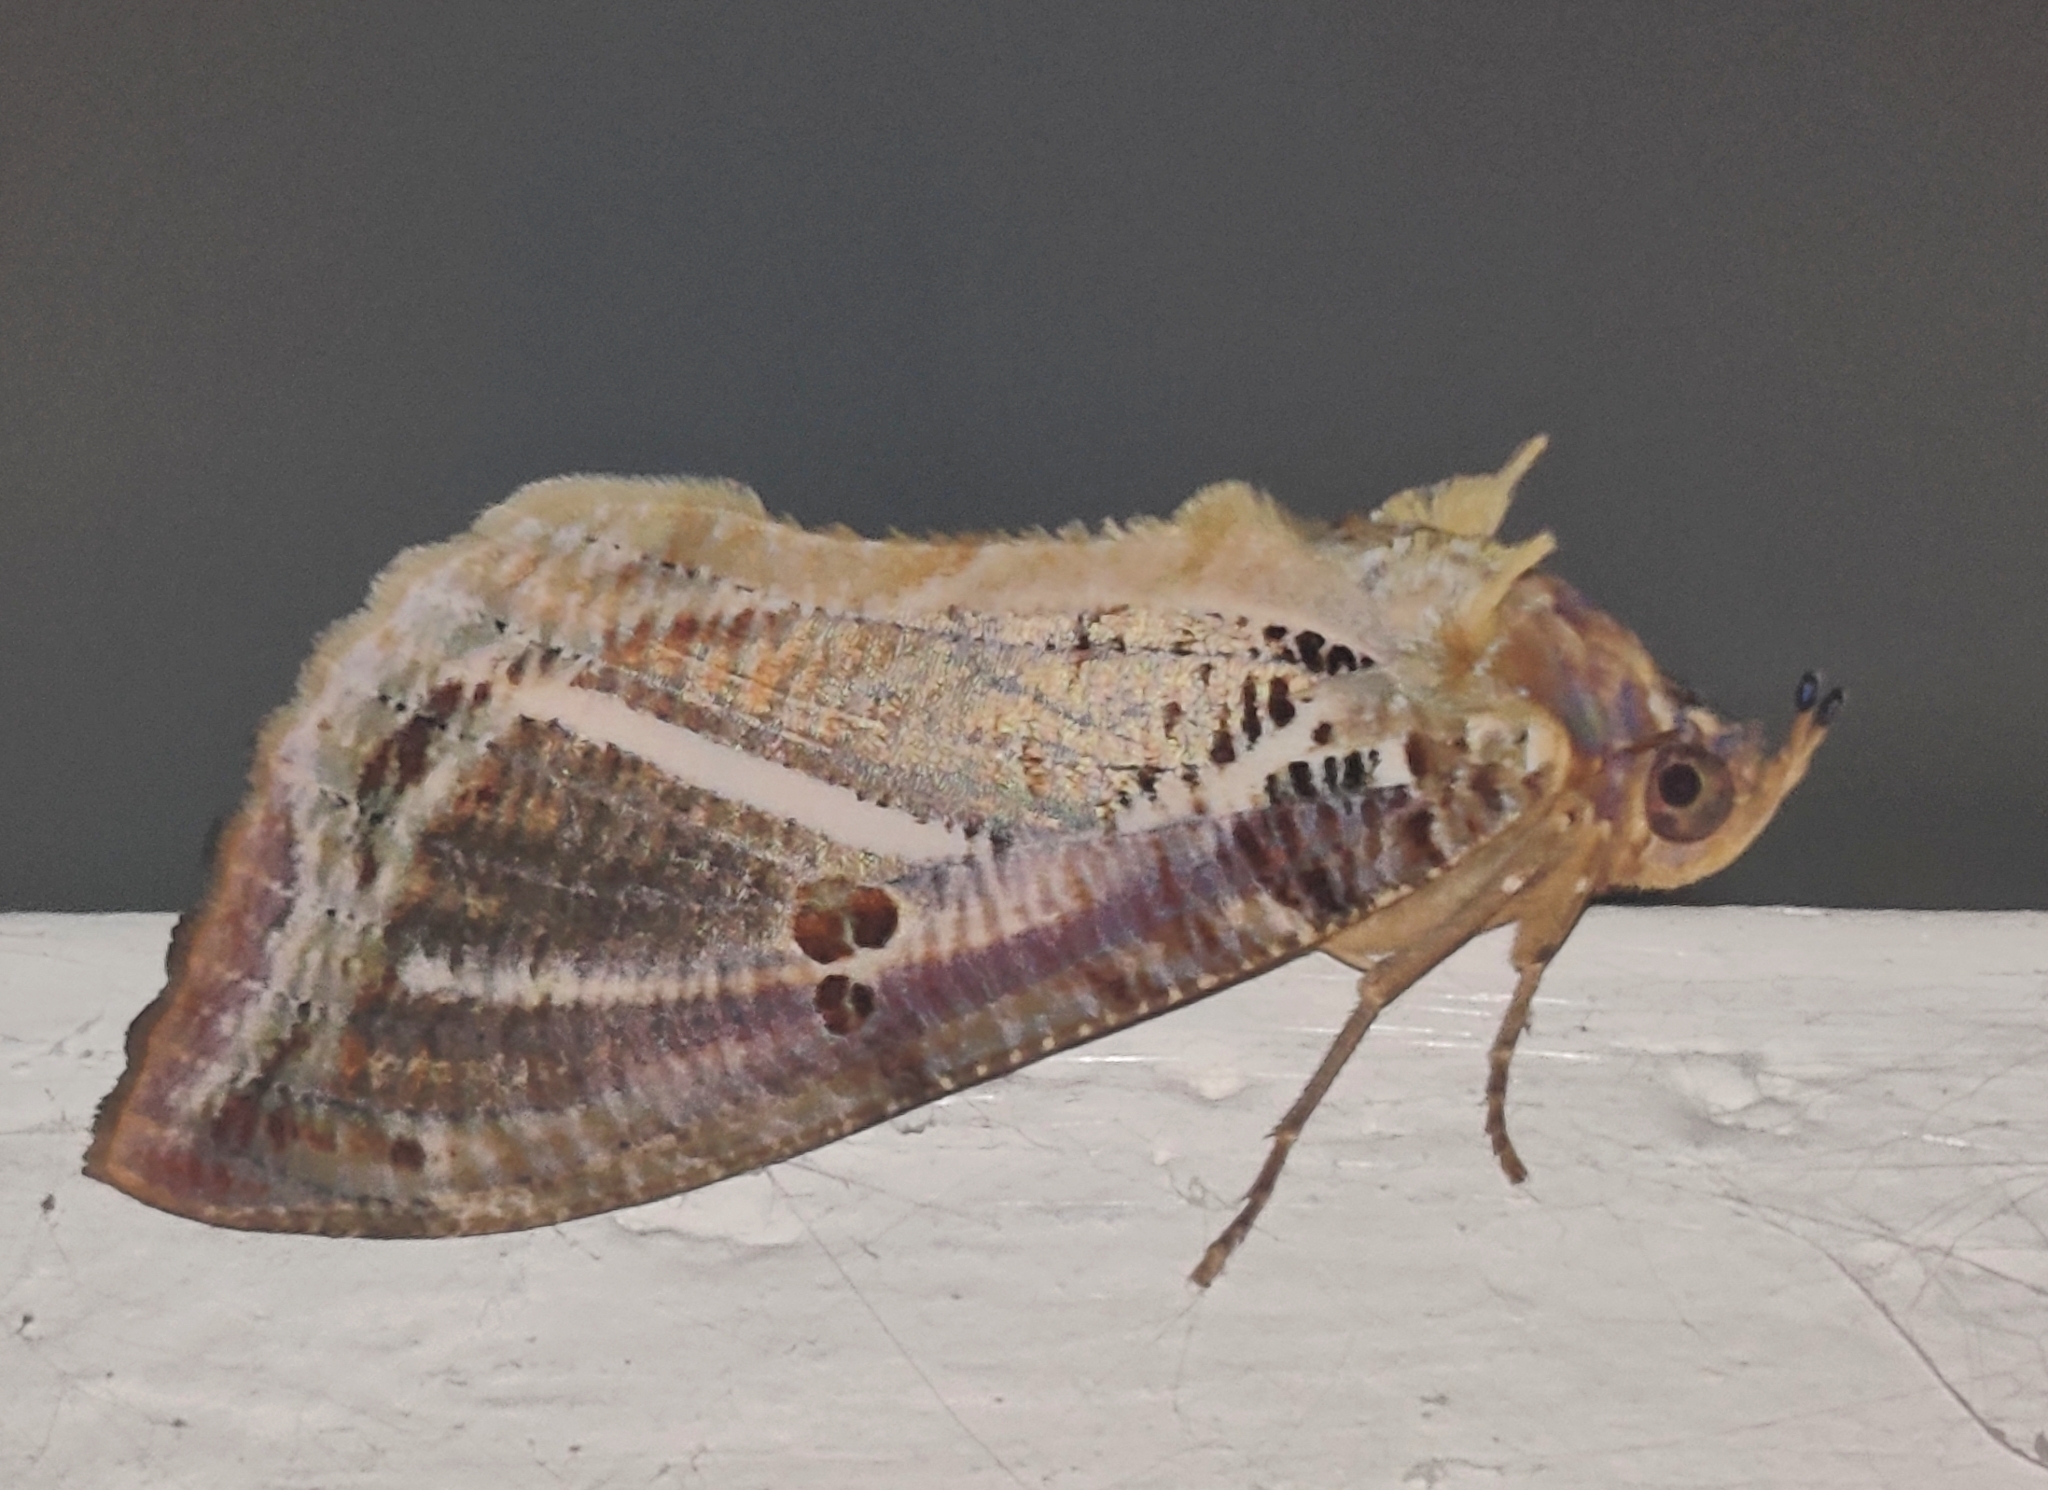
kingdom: Animalia
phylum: Arthropoda
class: Insecta
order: Lepidoptera
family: Erebidae
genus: Eudocima
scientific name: Eudocima materna
